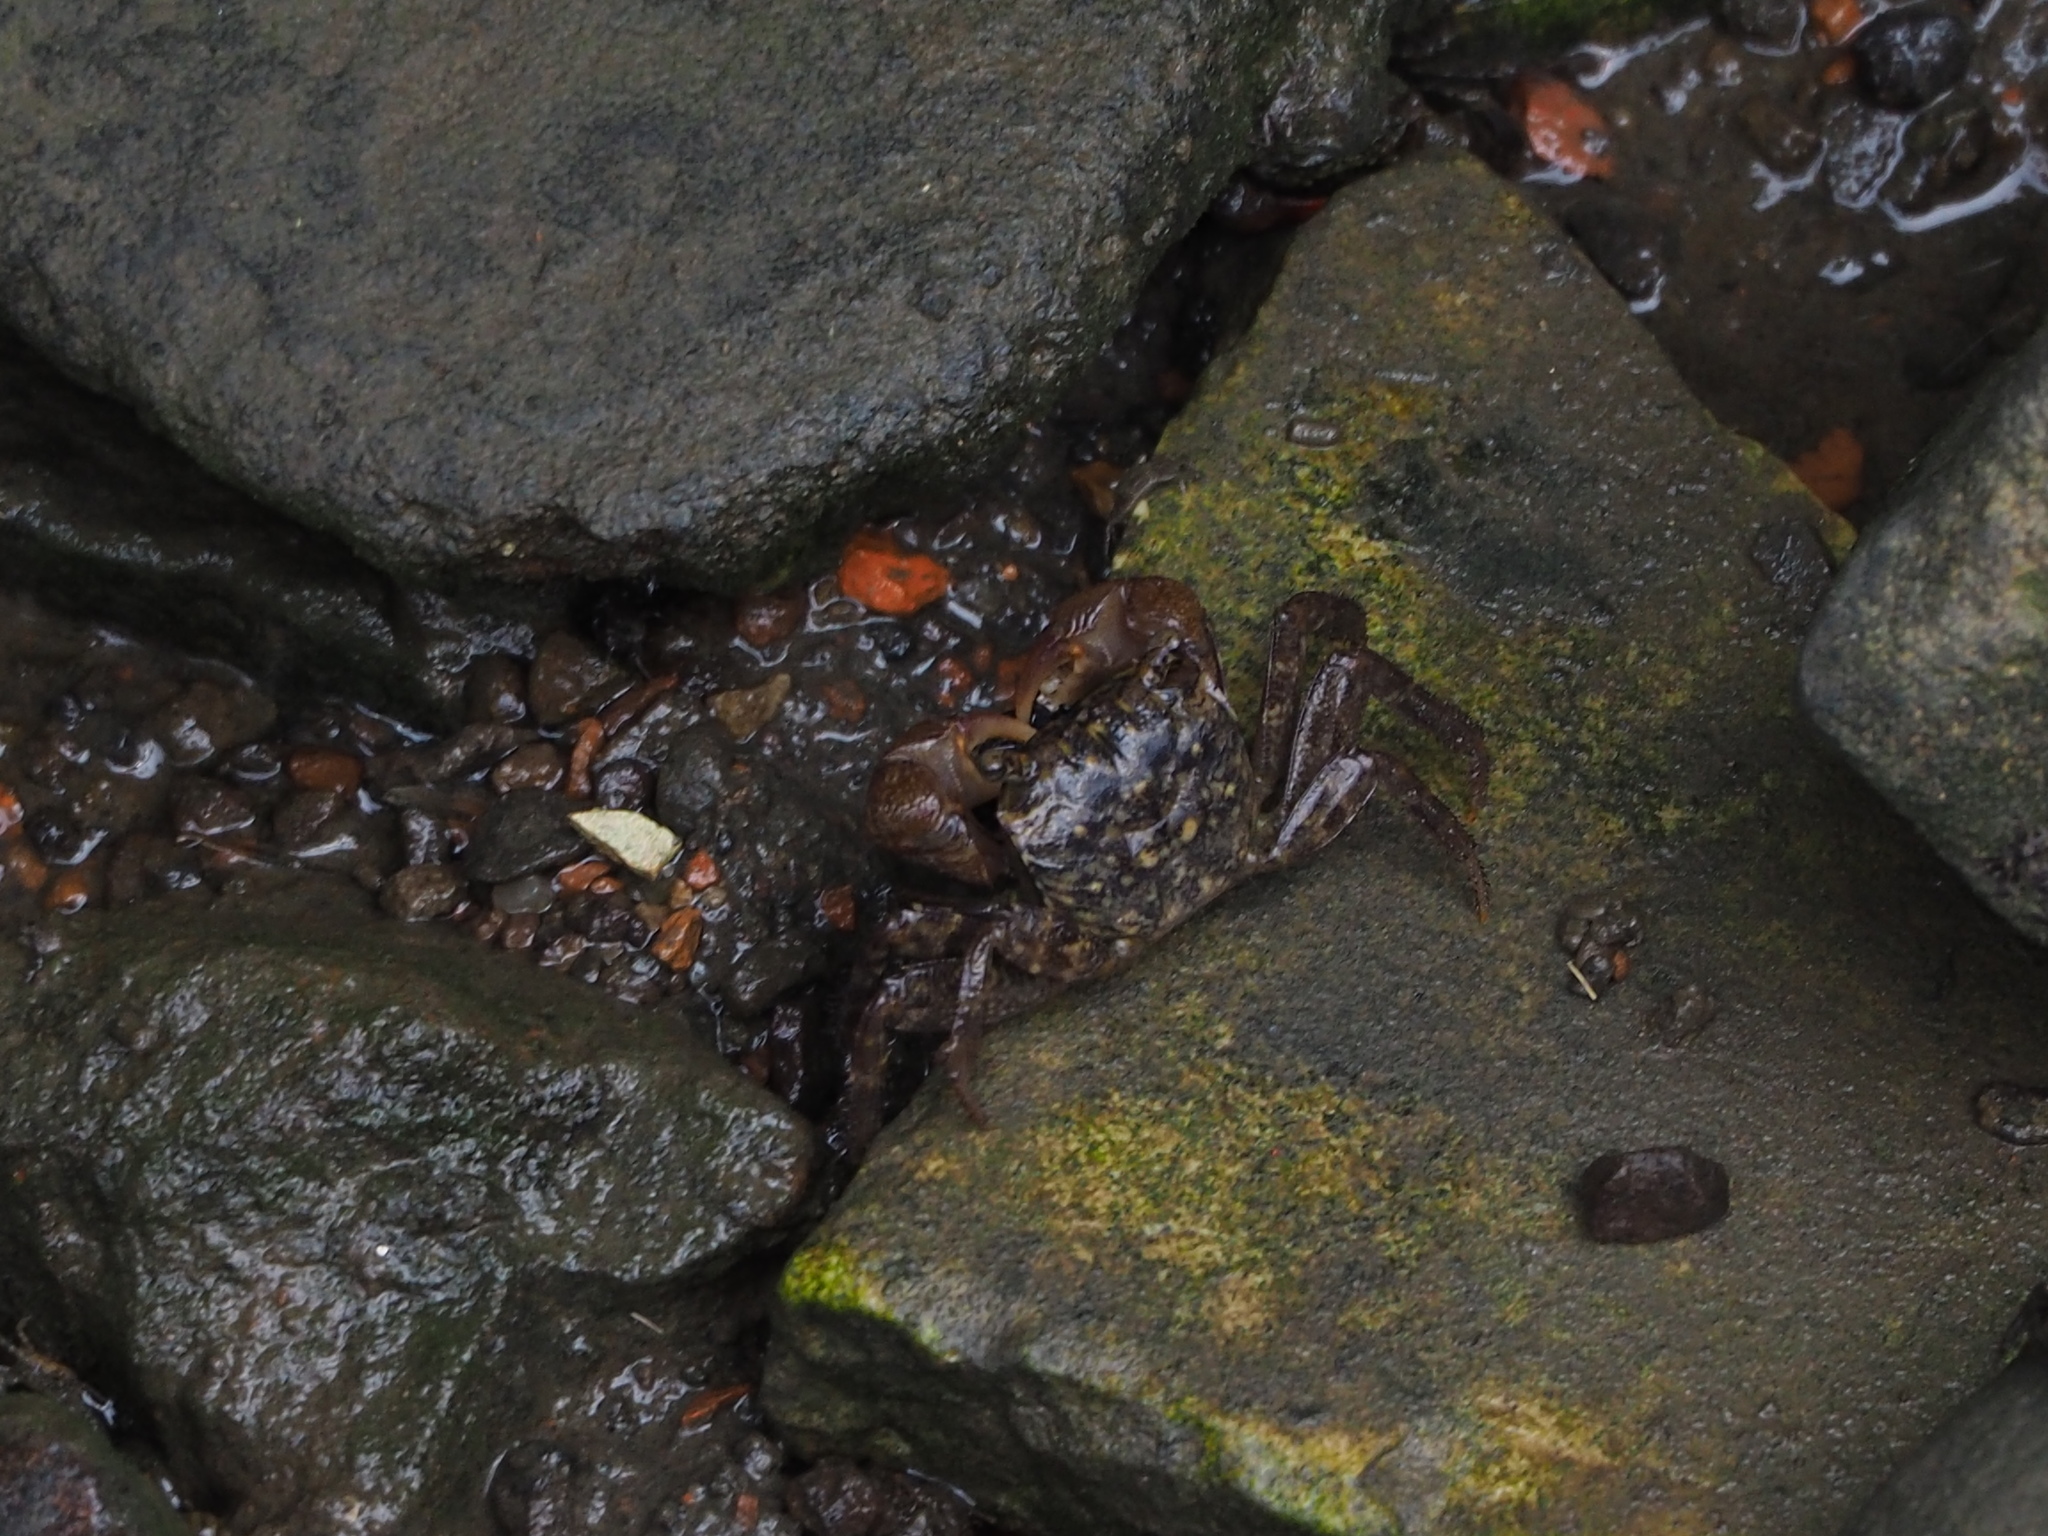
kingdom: Animalia
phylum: Arthropoda
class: Malacostraca
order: Decapoda
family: Sesarmidae
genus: Parasesarma
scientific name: Parasesarma pictum
